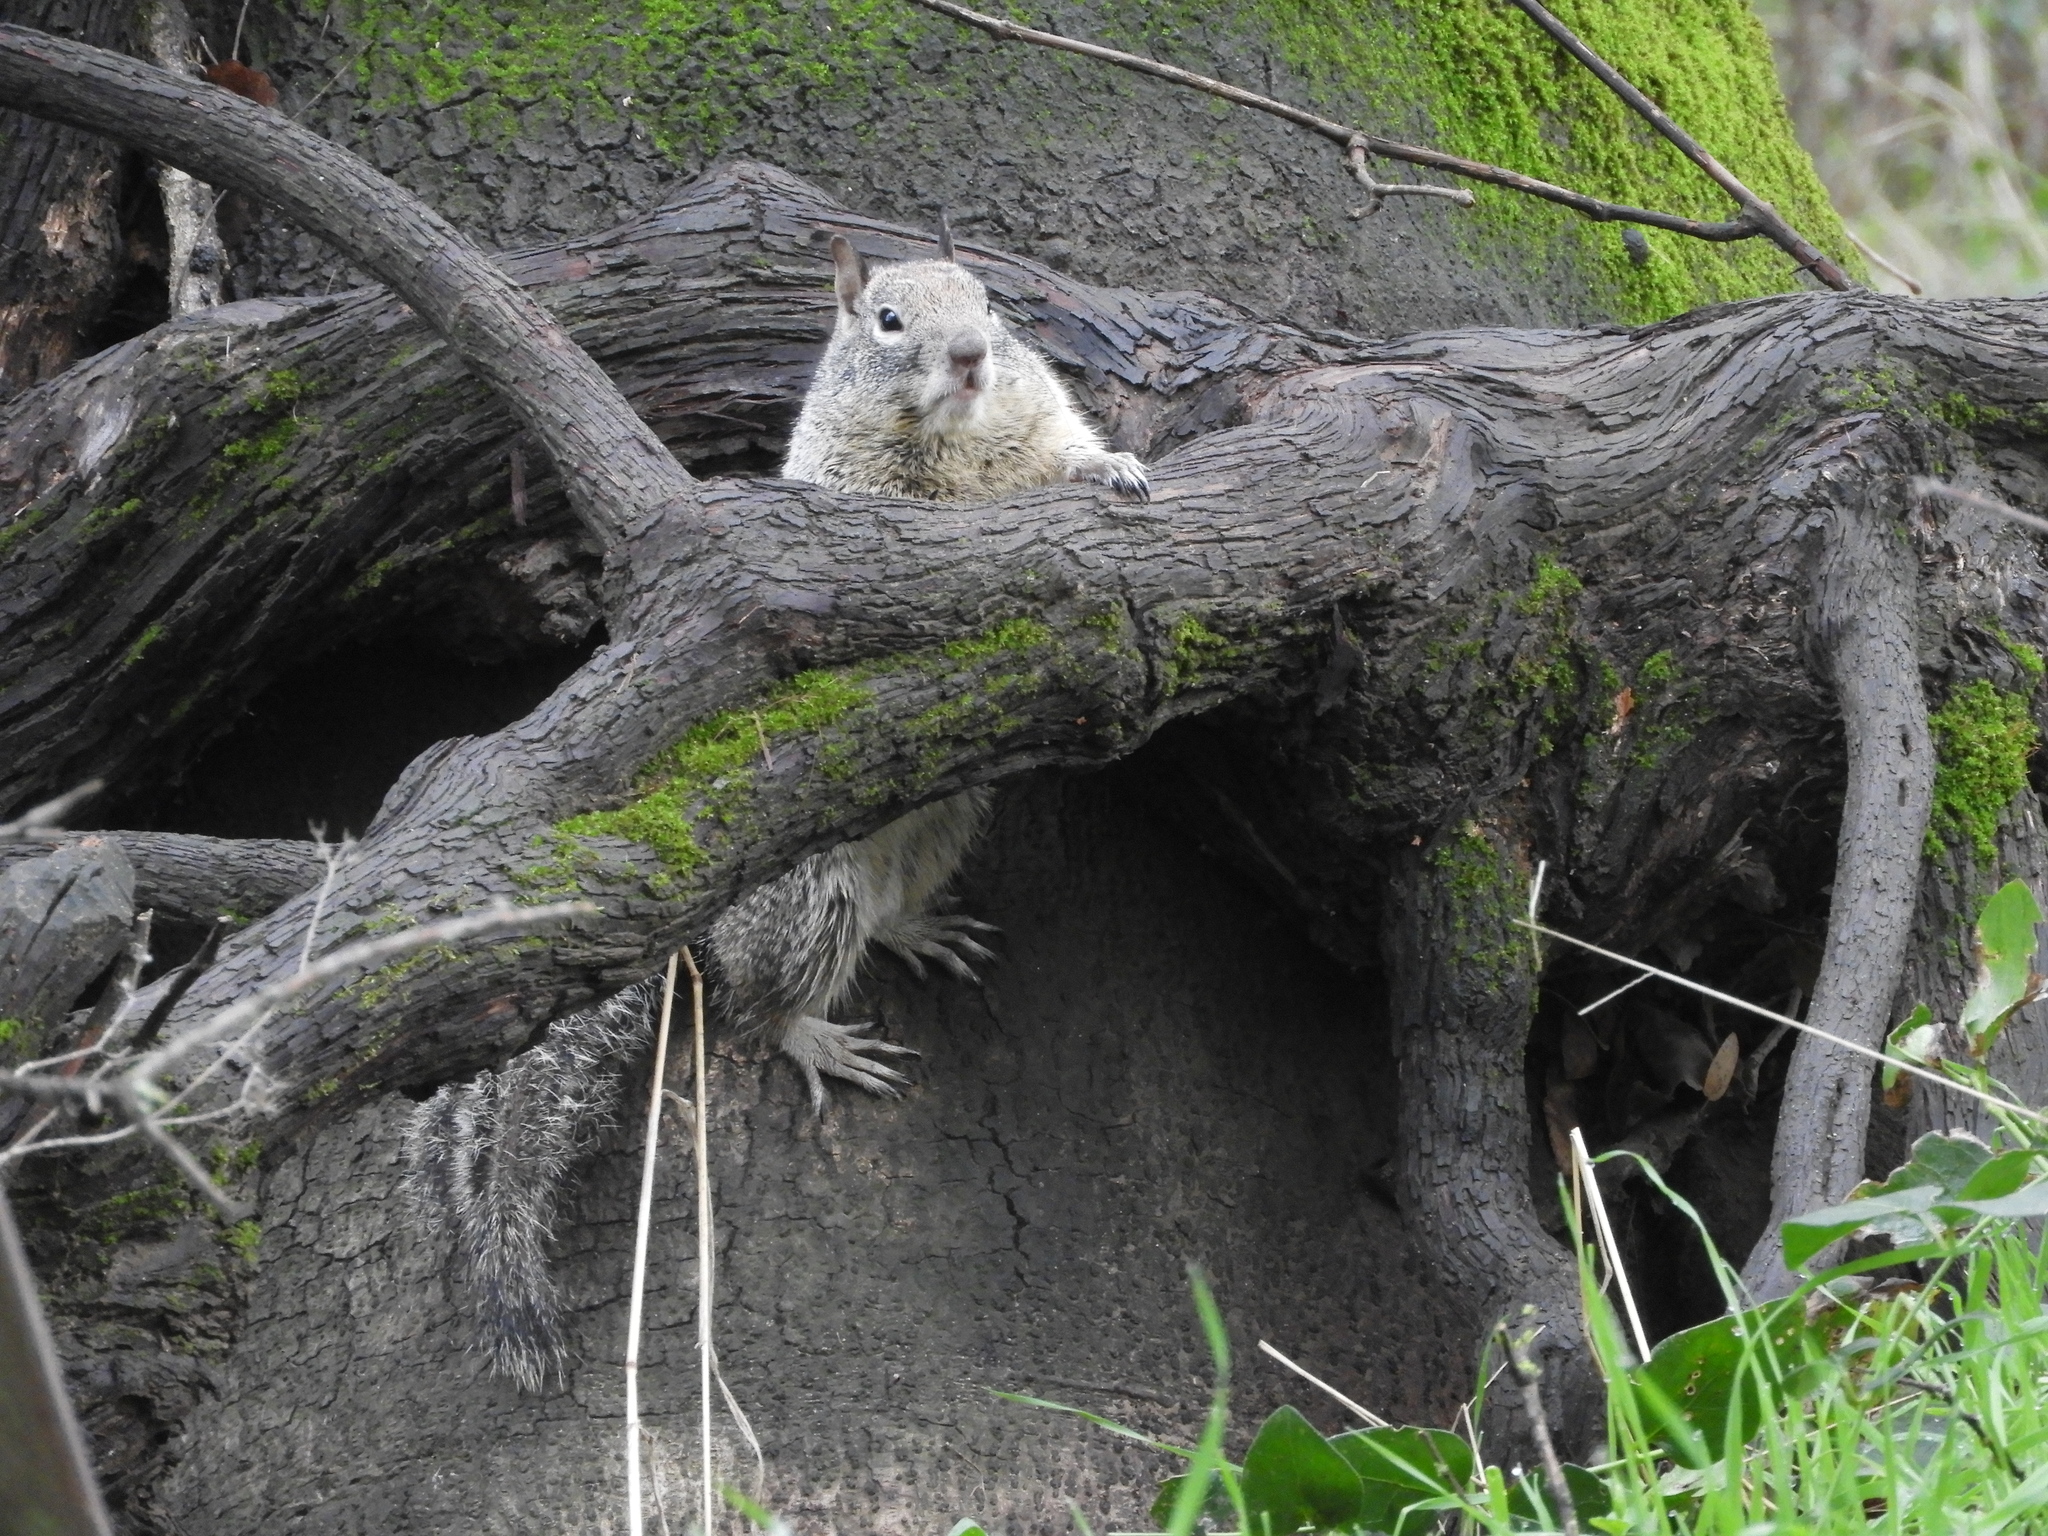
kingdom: Animalia
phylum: Chordata
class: Mammalia
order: Rodentia
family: Sciuridae
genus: Otospermophilus
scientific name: Otospermophilus beecheyi
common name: California ground squirrel
